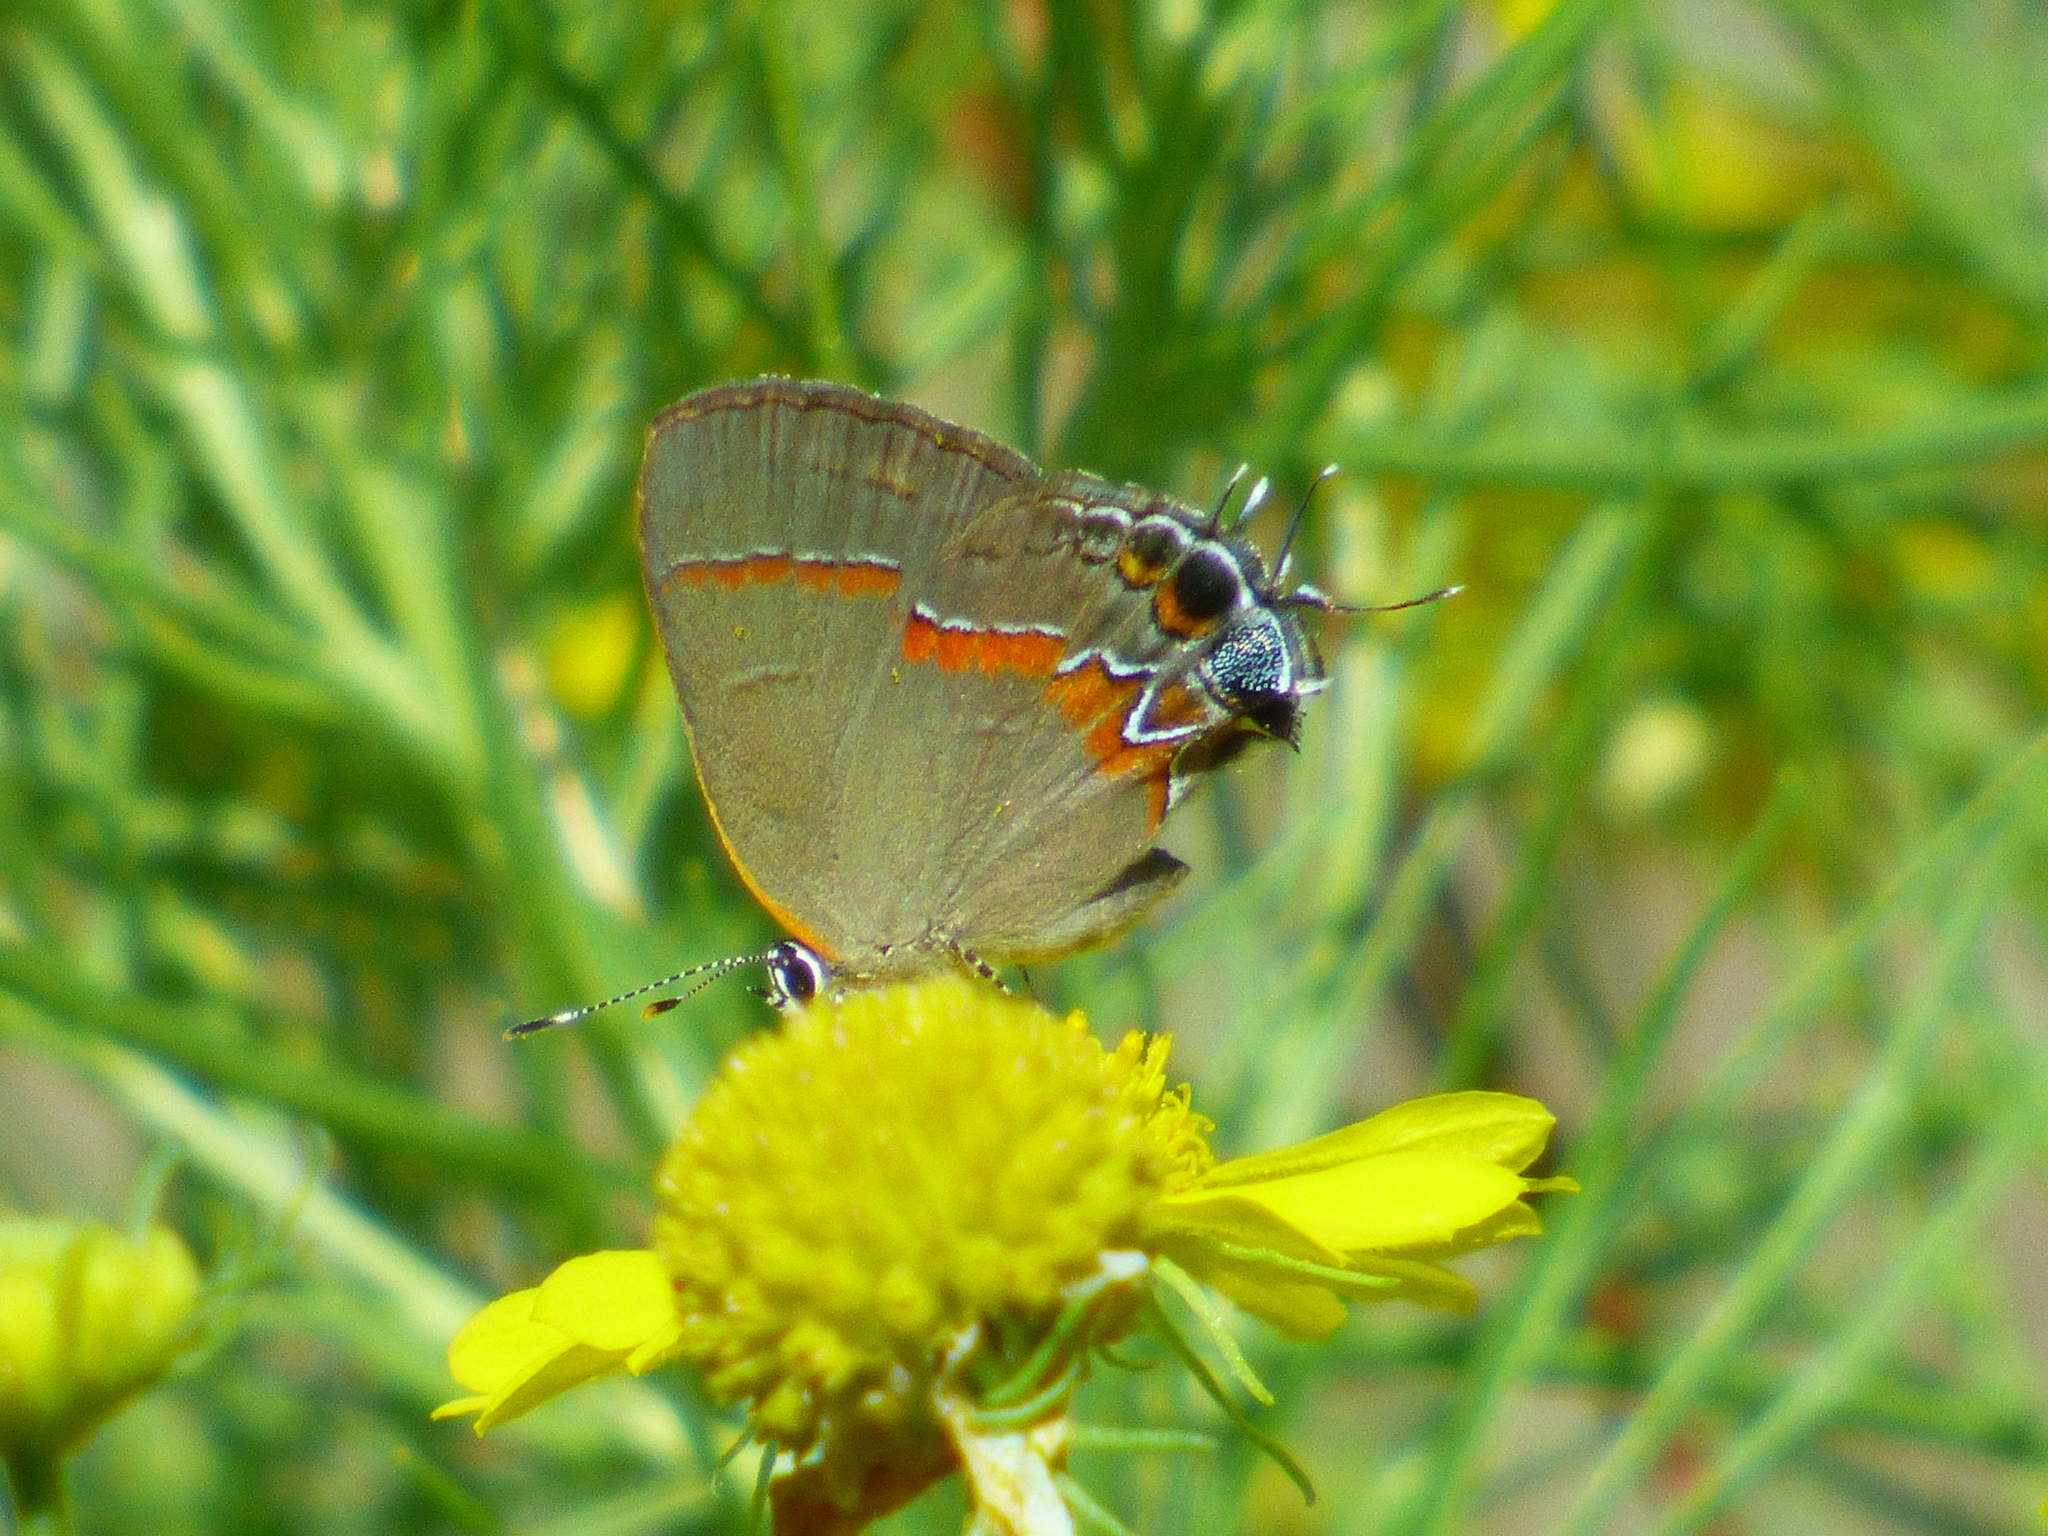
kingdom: Animalia
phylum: Arthropoda
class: Insecta
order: Lepidoptera
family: Lycaenidae
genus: Calycopis
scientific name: Calycopis cecrops
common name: Red-banded hairstreak
